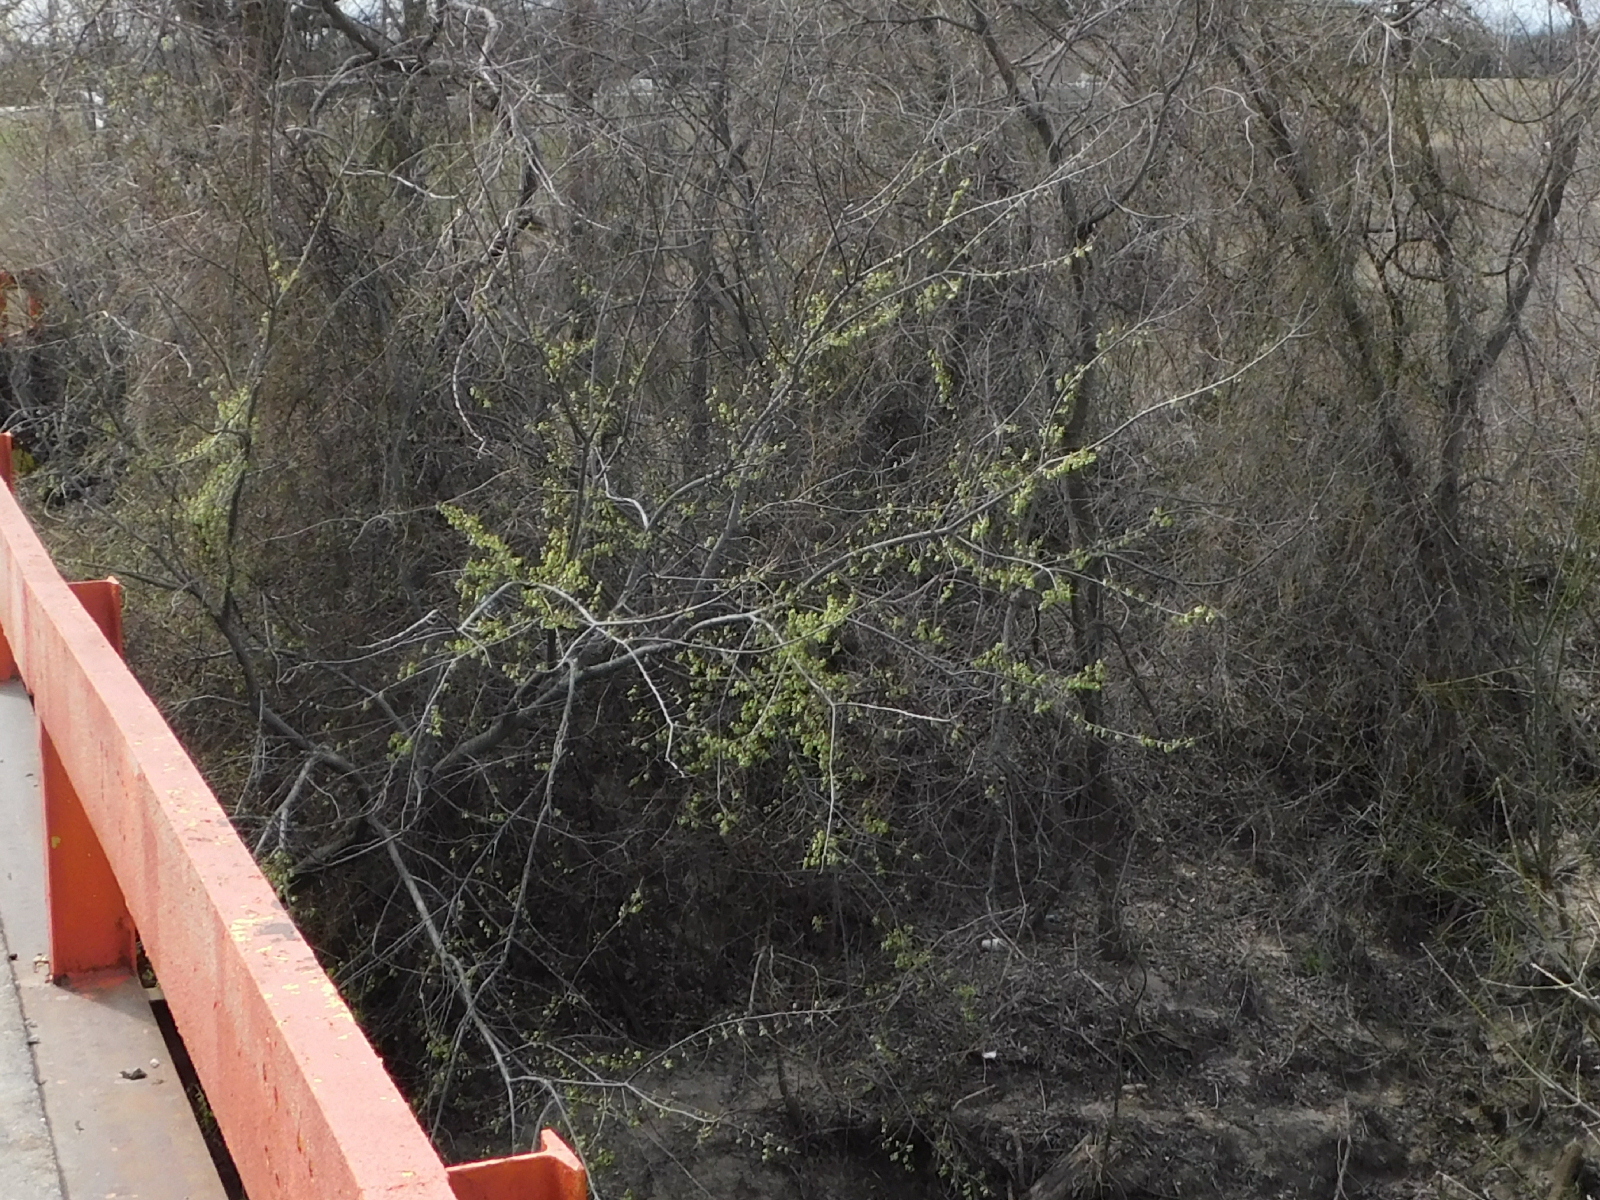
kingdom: Plantae
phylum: Tracheophyta
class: Magnoliopsida
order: Rosales
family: Ulmaceae
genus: Ulmus
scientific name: Ulmus americana
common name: American elm
